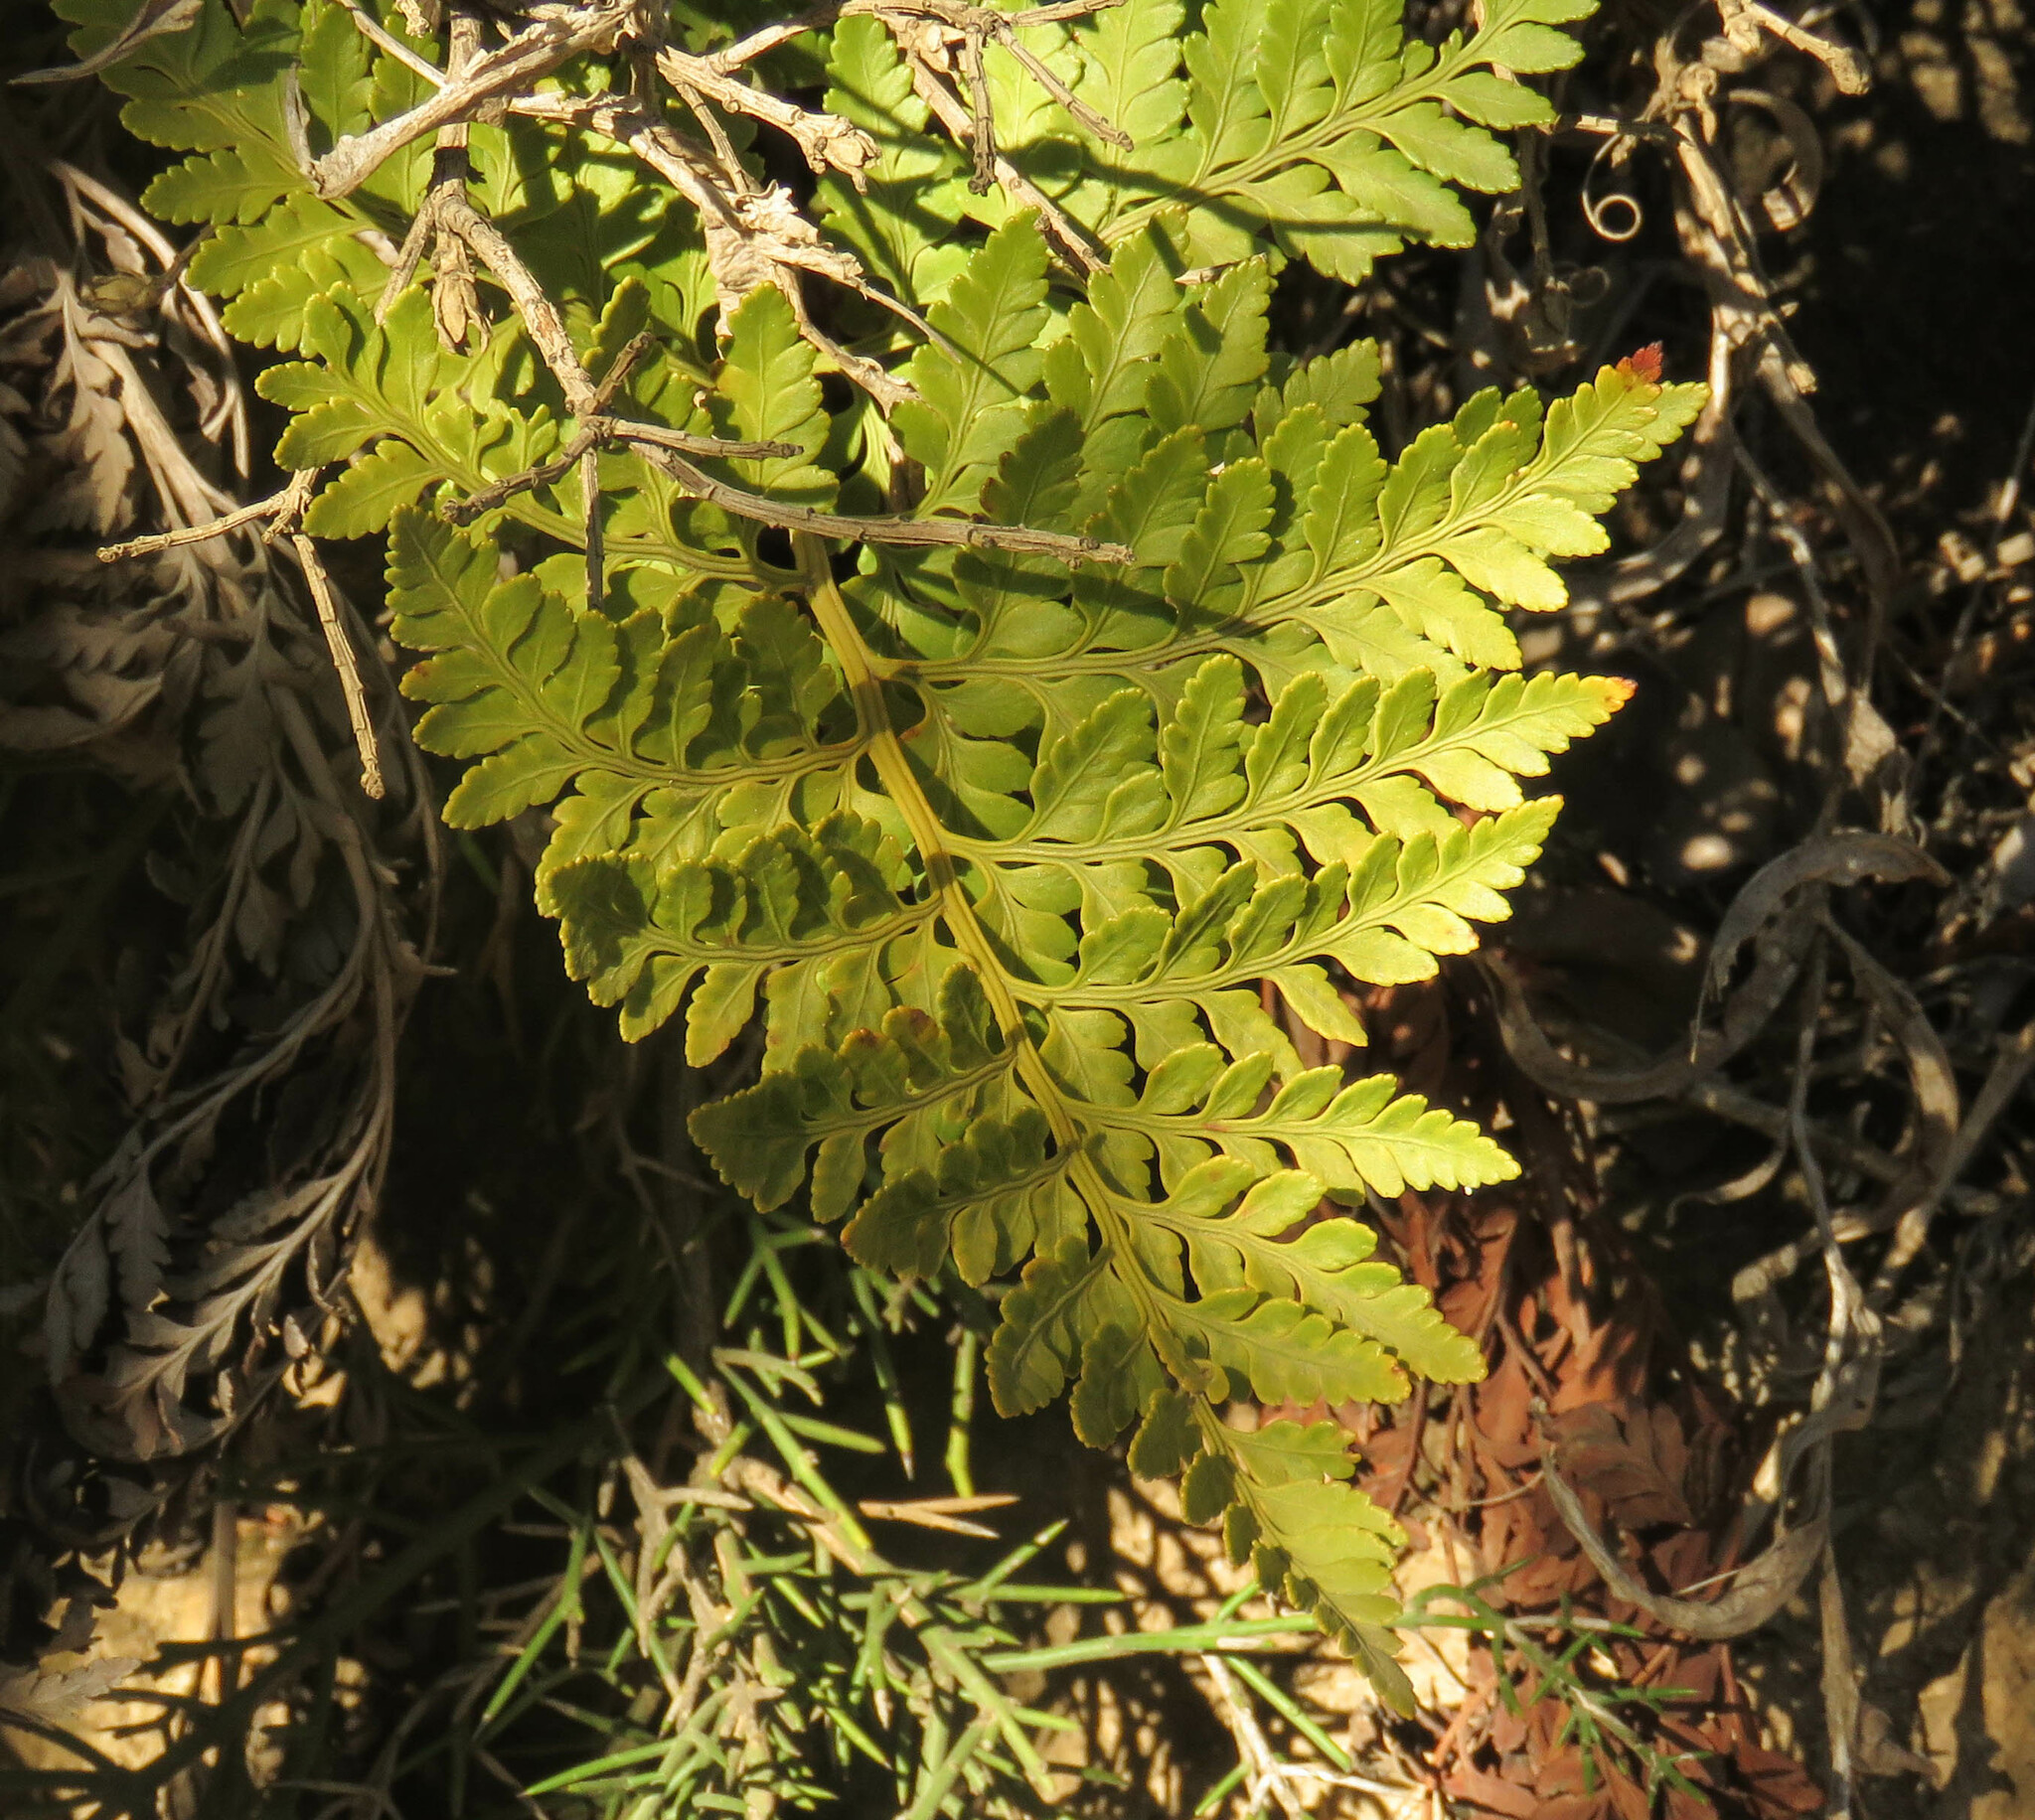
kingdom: Plantae
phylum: Tracheophyta
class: Polypodiopsida
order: Polypodiales
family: Dryopteridaceae
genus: Rumohra
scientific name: Rumohra adiantiformis
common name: Leather fern
